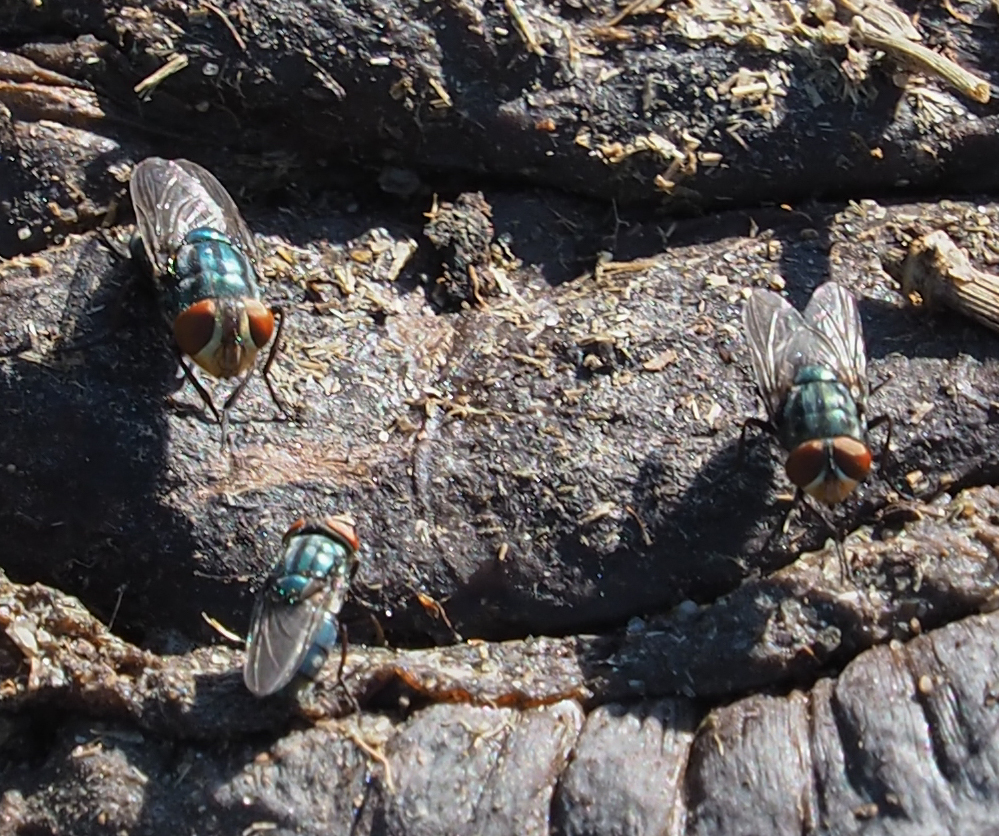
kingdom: Animalia
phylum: Arthropoda
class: Insecta
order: Diptera
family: Calliphoridae
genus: Cochliomyia
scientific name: Cochliomyia macellaria
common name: Secondary screwworm
